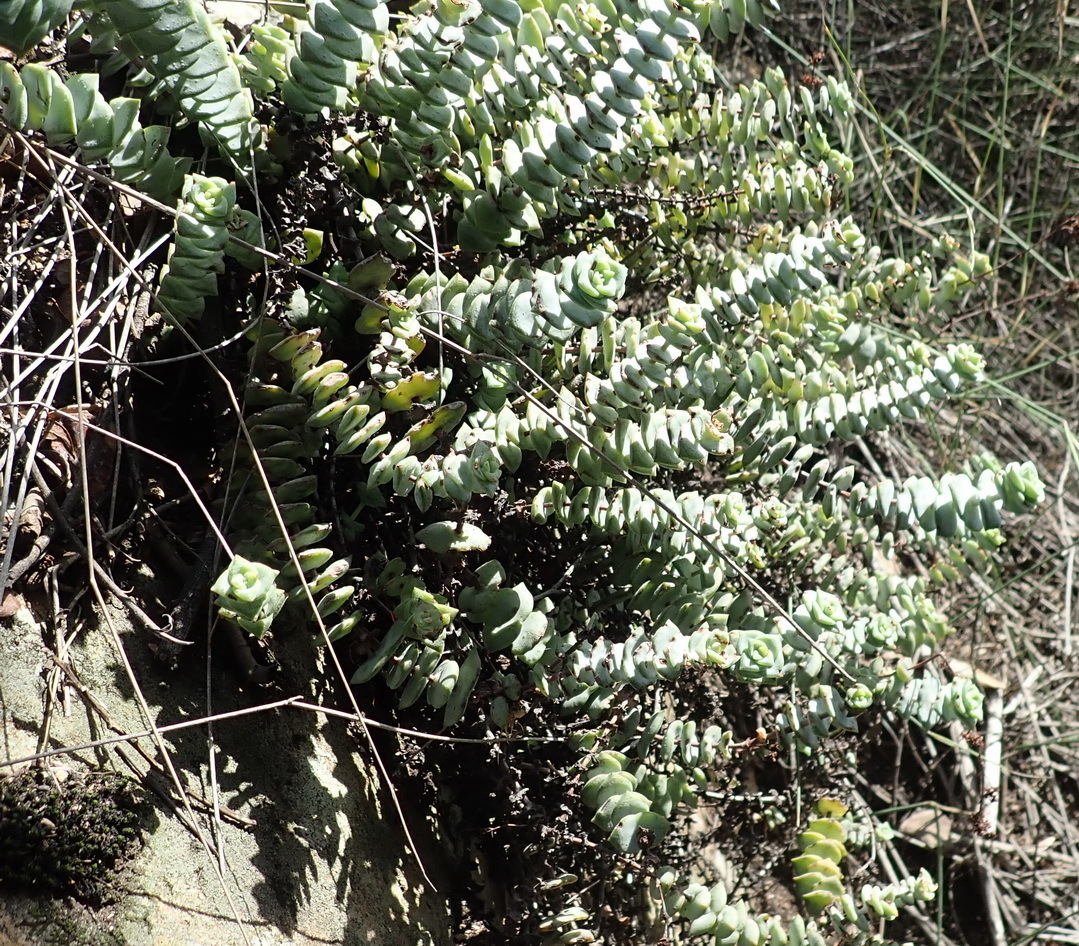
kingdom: Plantae
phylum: Tracheophyta
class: Magnoliopsida
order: Saxifragales
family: Crassulaceae
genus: Crassula
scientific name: Crassula perforata
